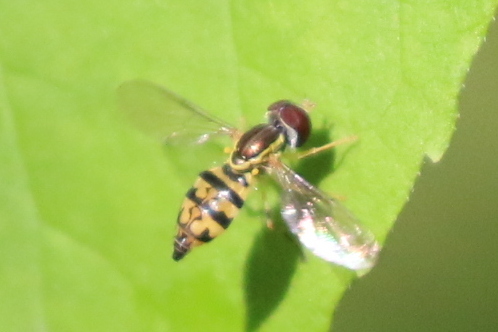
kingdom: Animalia
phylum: Arthropoda
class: Insecta
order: Diptera
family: Syrphidae
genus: Toxomerus
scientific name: Toxomerus geminatus
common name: Eastern calligrapher
